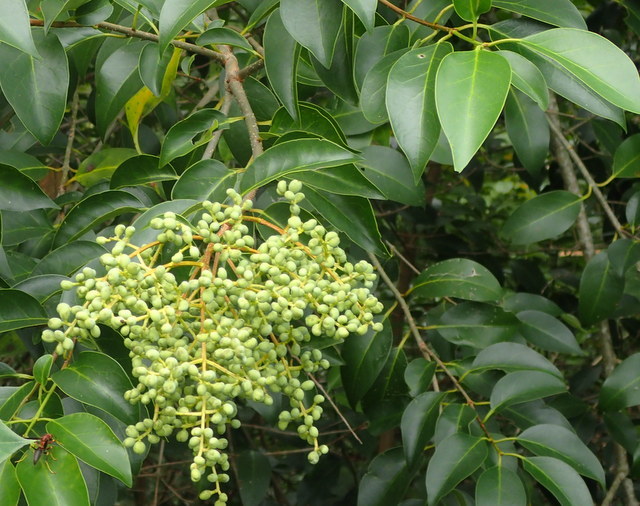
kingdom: Plantae
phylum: Tracheophyta
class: Magnoliopsida
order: Lamiales
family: Oleaceae
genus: Ligustrum
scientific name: Ligustrum lucidum
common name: Glossy privet
